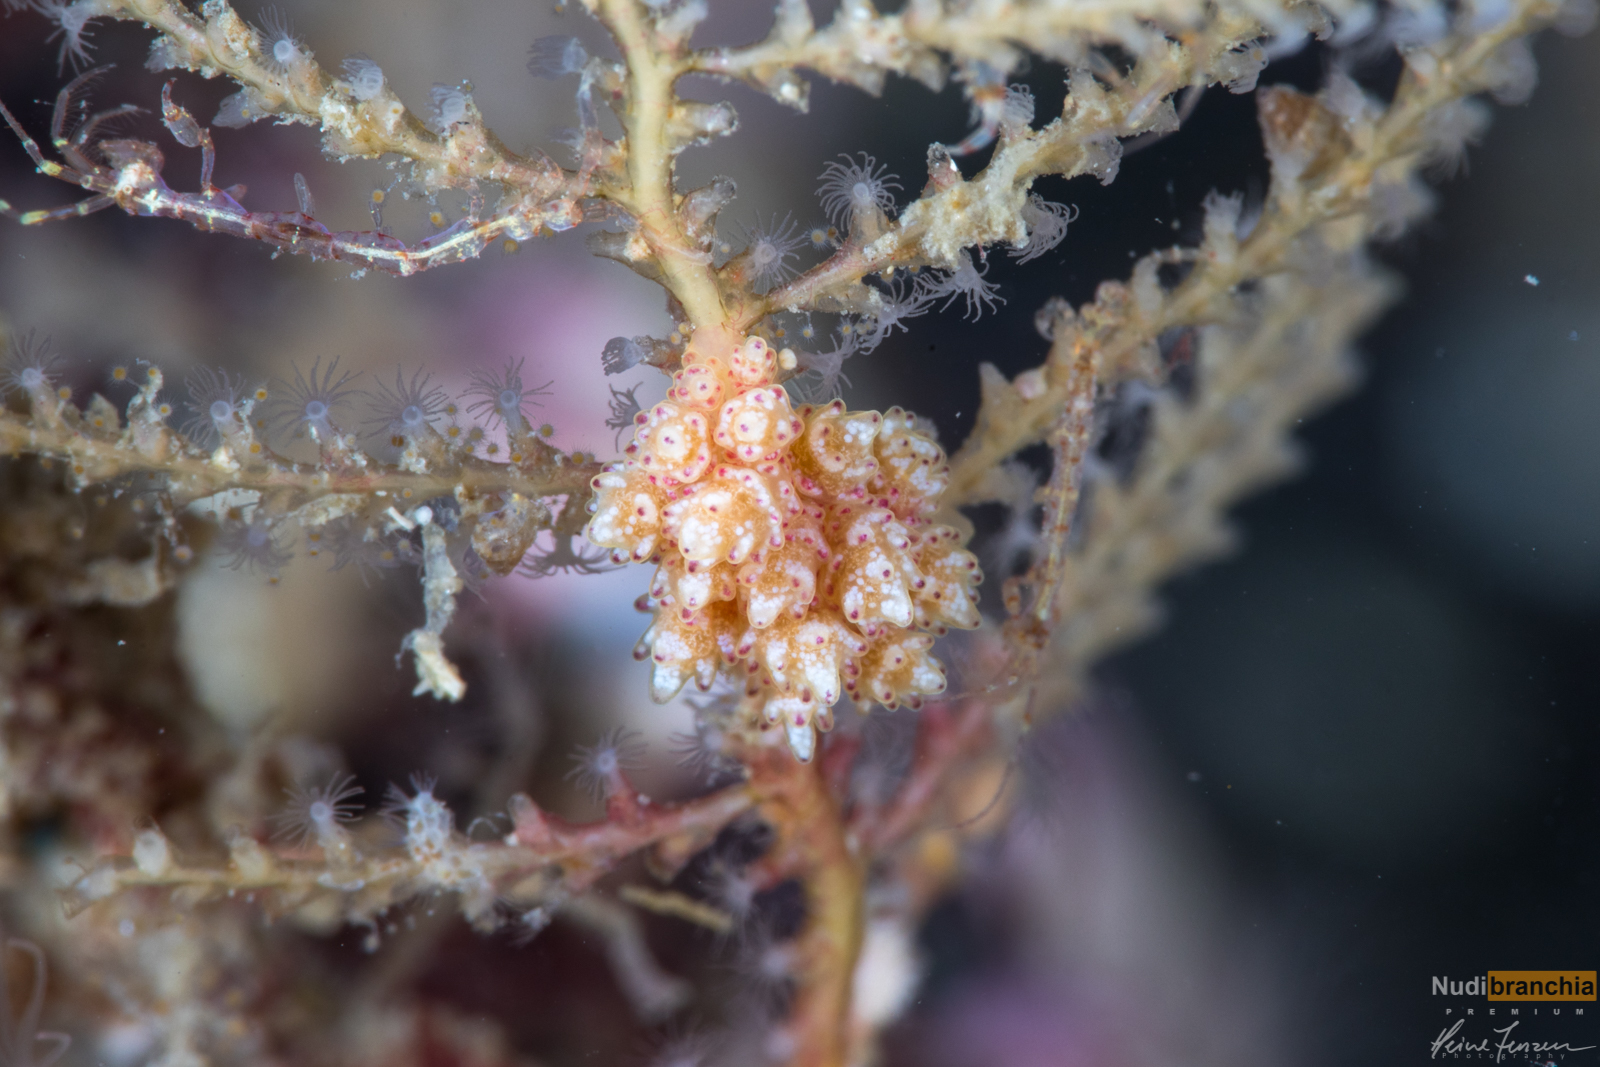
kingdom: Animalia
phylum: Mollusca
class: Gastropoda
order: Nudibranchia
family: Dotidae
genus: Doto
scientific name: Doto coronata
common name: Coronate doto
